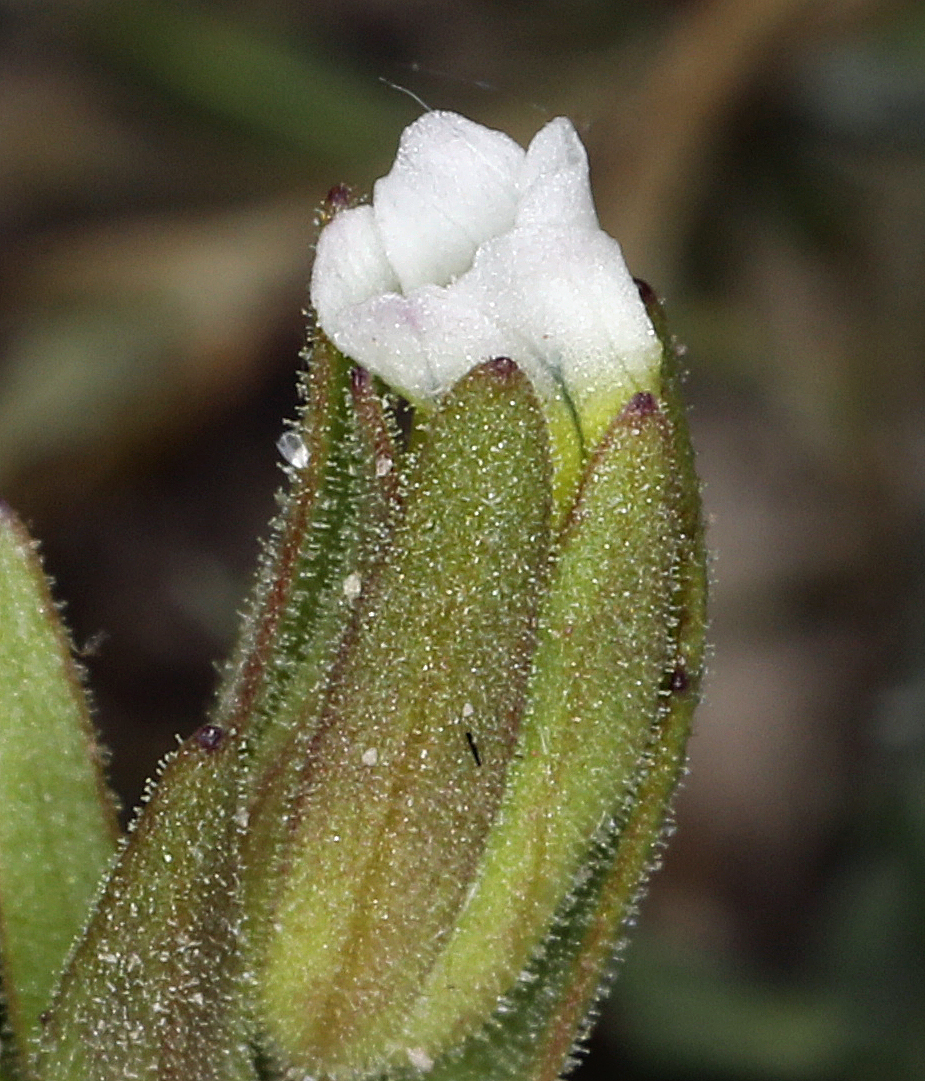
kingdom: Plantae
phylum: Tracheophyta
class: Magnoliopsida
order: Lamiales
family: Plantaginaceae
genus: Gratiola
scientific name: Gratiola ebracteata
